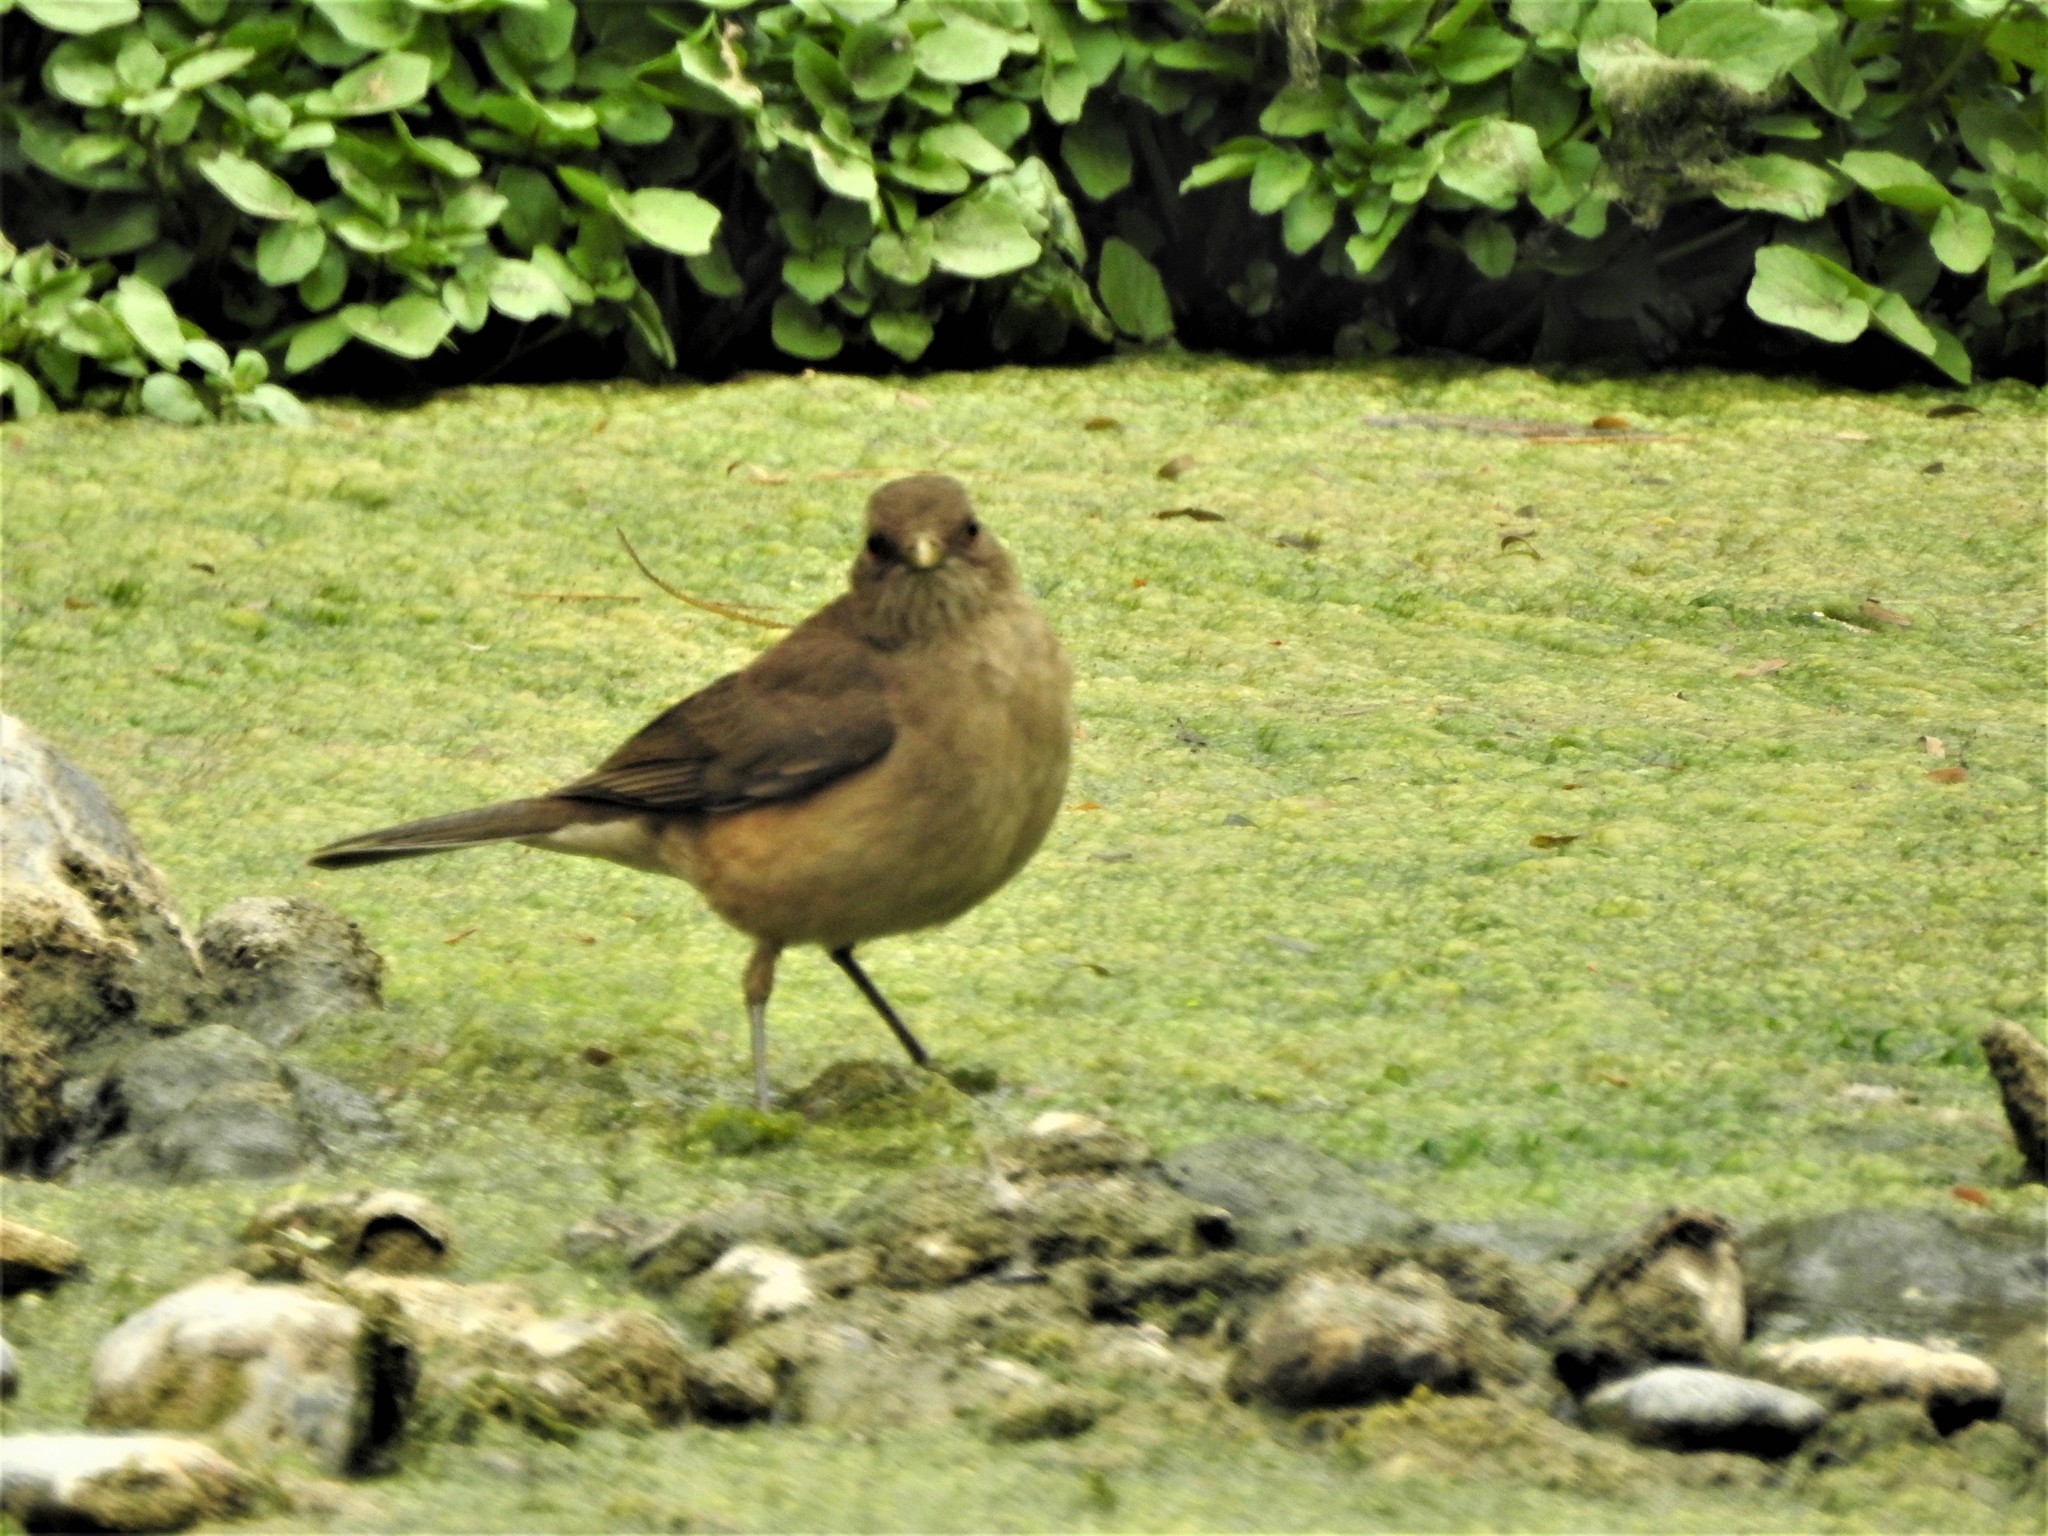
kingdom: Animalia
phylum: Chordata
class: Aves
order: Passeriformes
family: Turdidae
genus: Turdus
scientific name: Turdus grayi
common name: Clay-colored thrush
